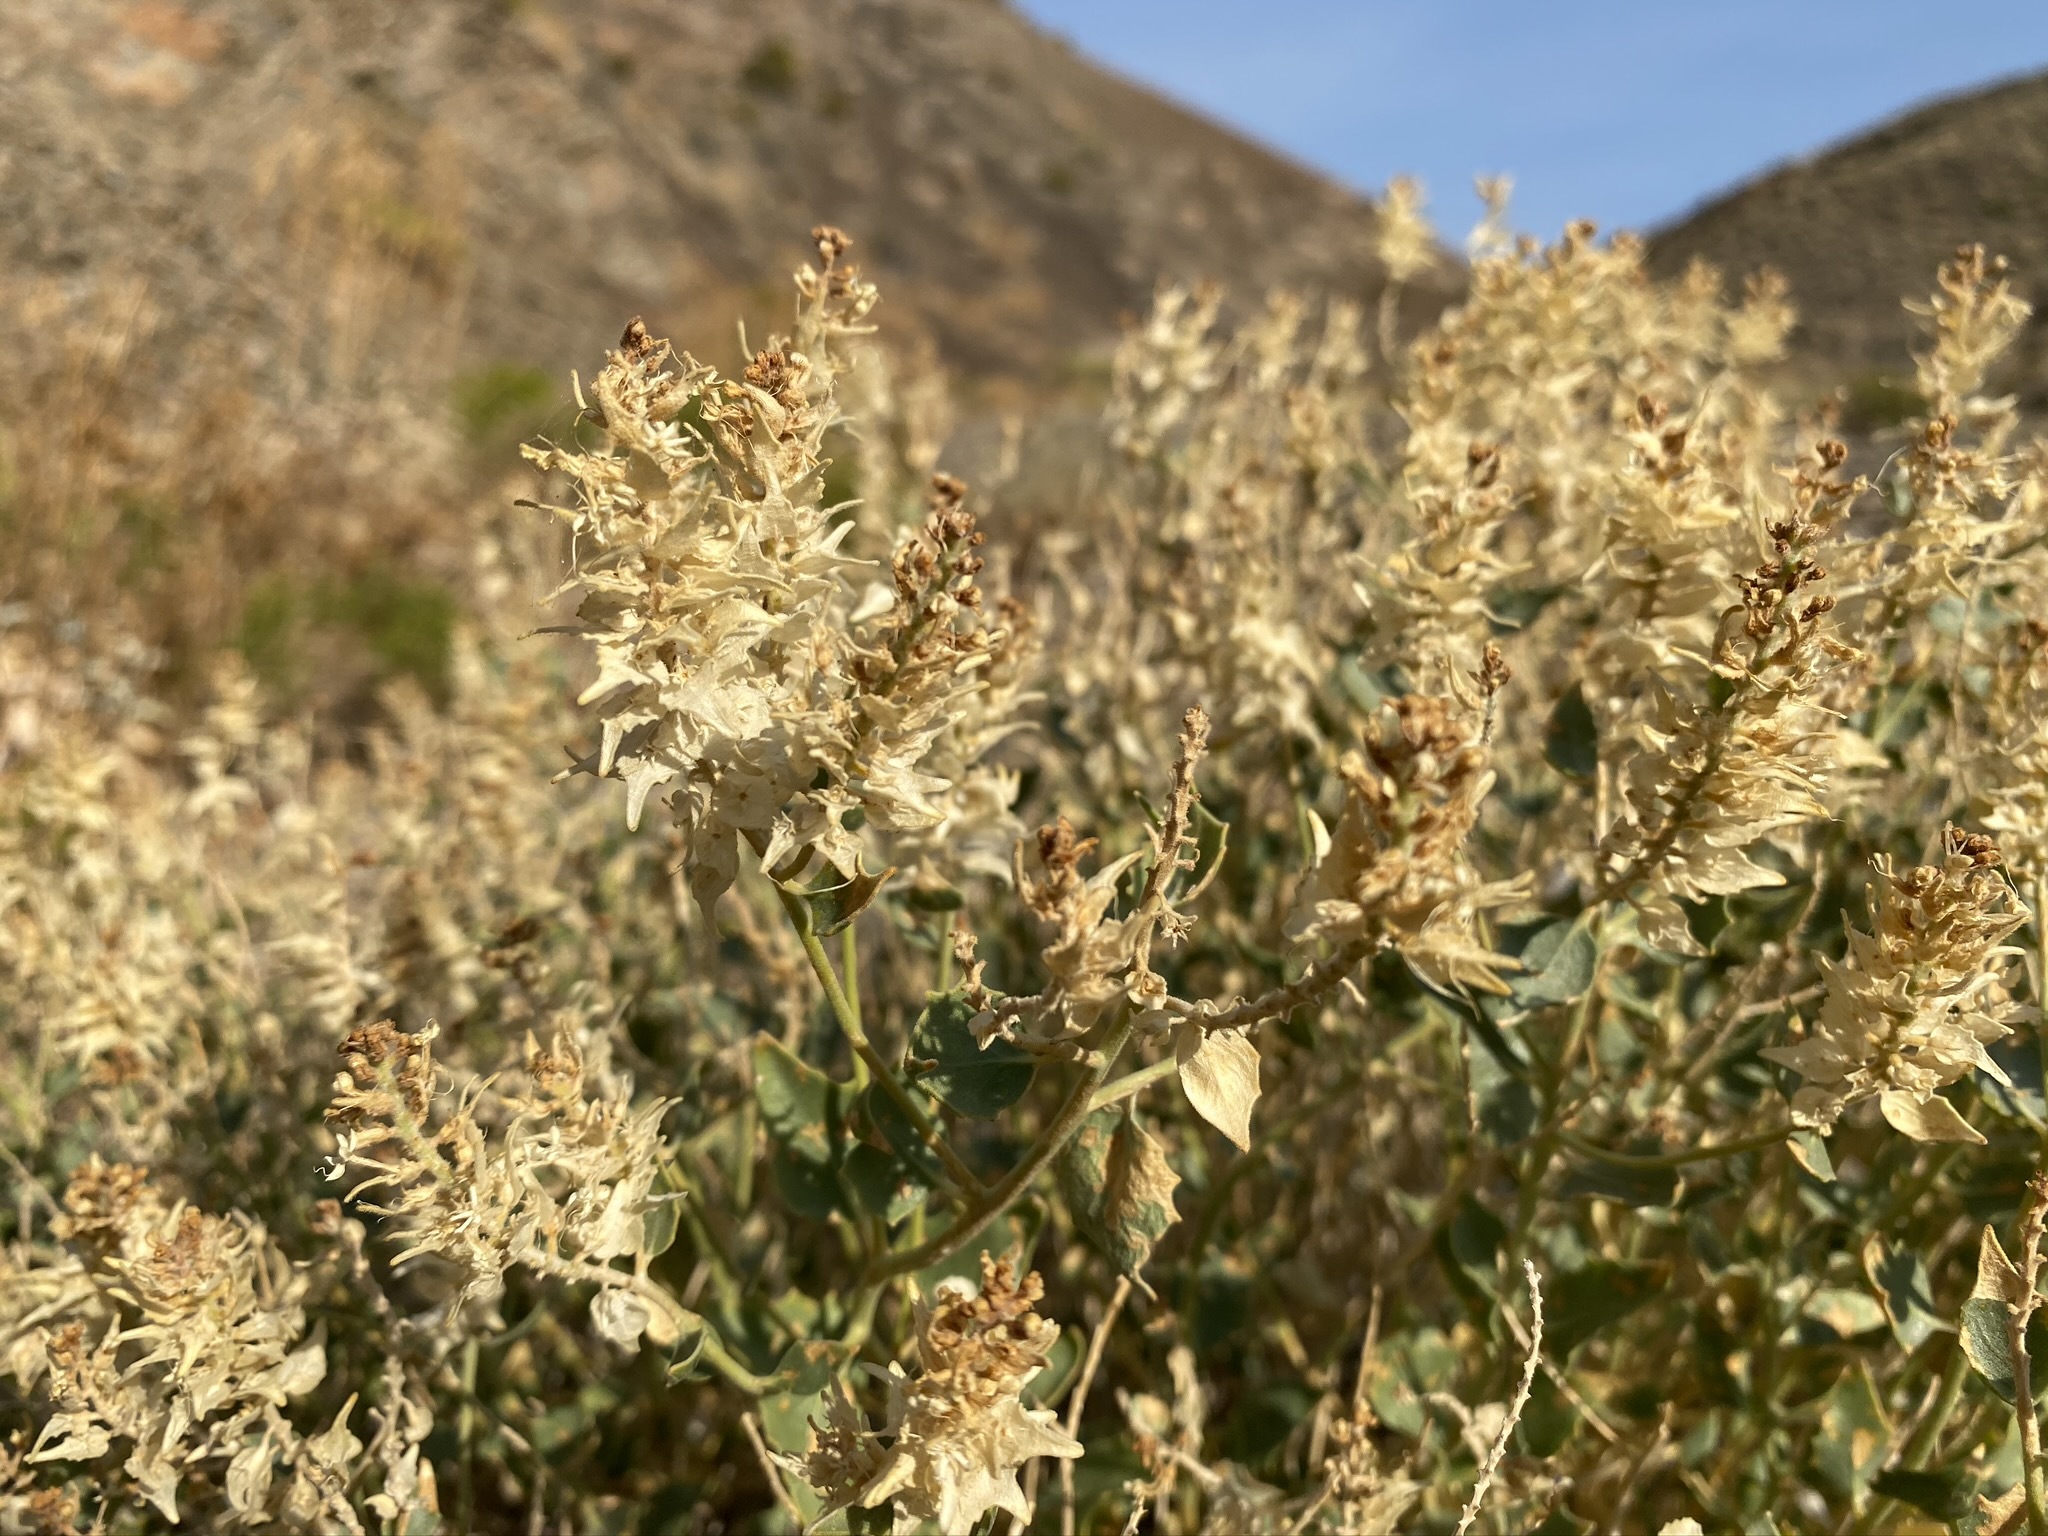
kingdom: Plantae
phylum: Tracheophyta
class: Magnoliopsida
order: Cornales
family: Loasaceae
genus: Petalonyx
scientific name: Petalonyx thurberi
